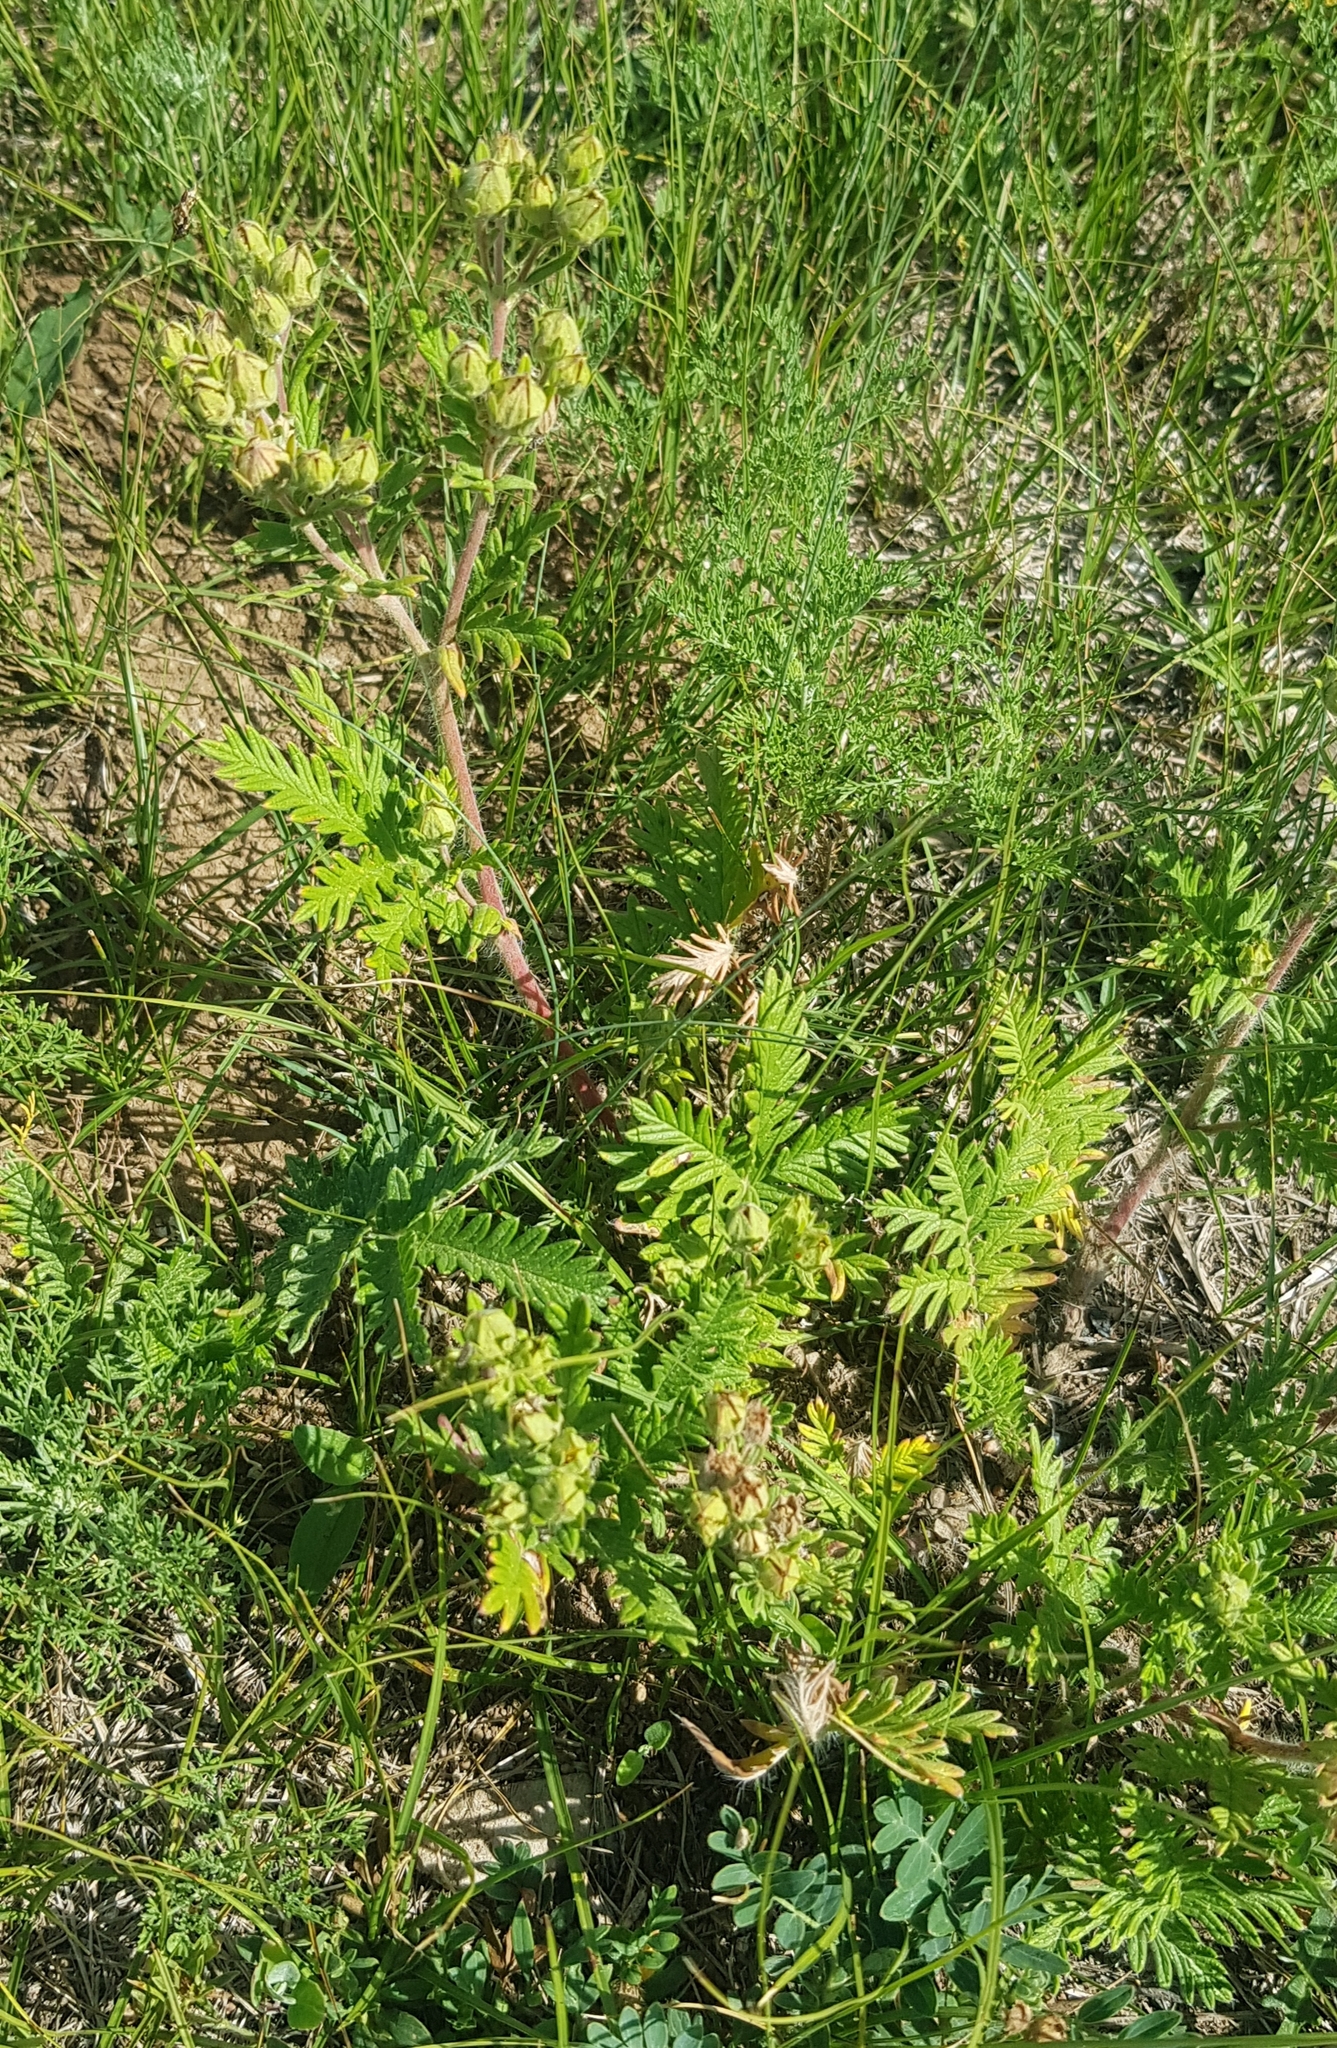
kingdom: Plantae
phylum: Tracheophyta
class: Magnoliopsida
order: Rosales
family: Rosaceae
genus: Potentilla
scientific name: Potentilla tanacetifolia
